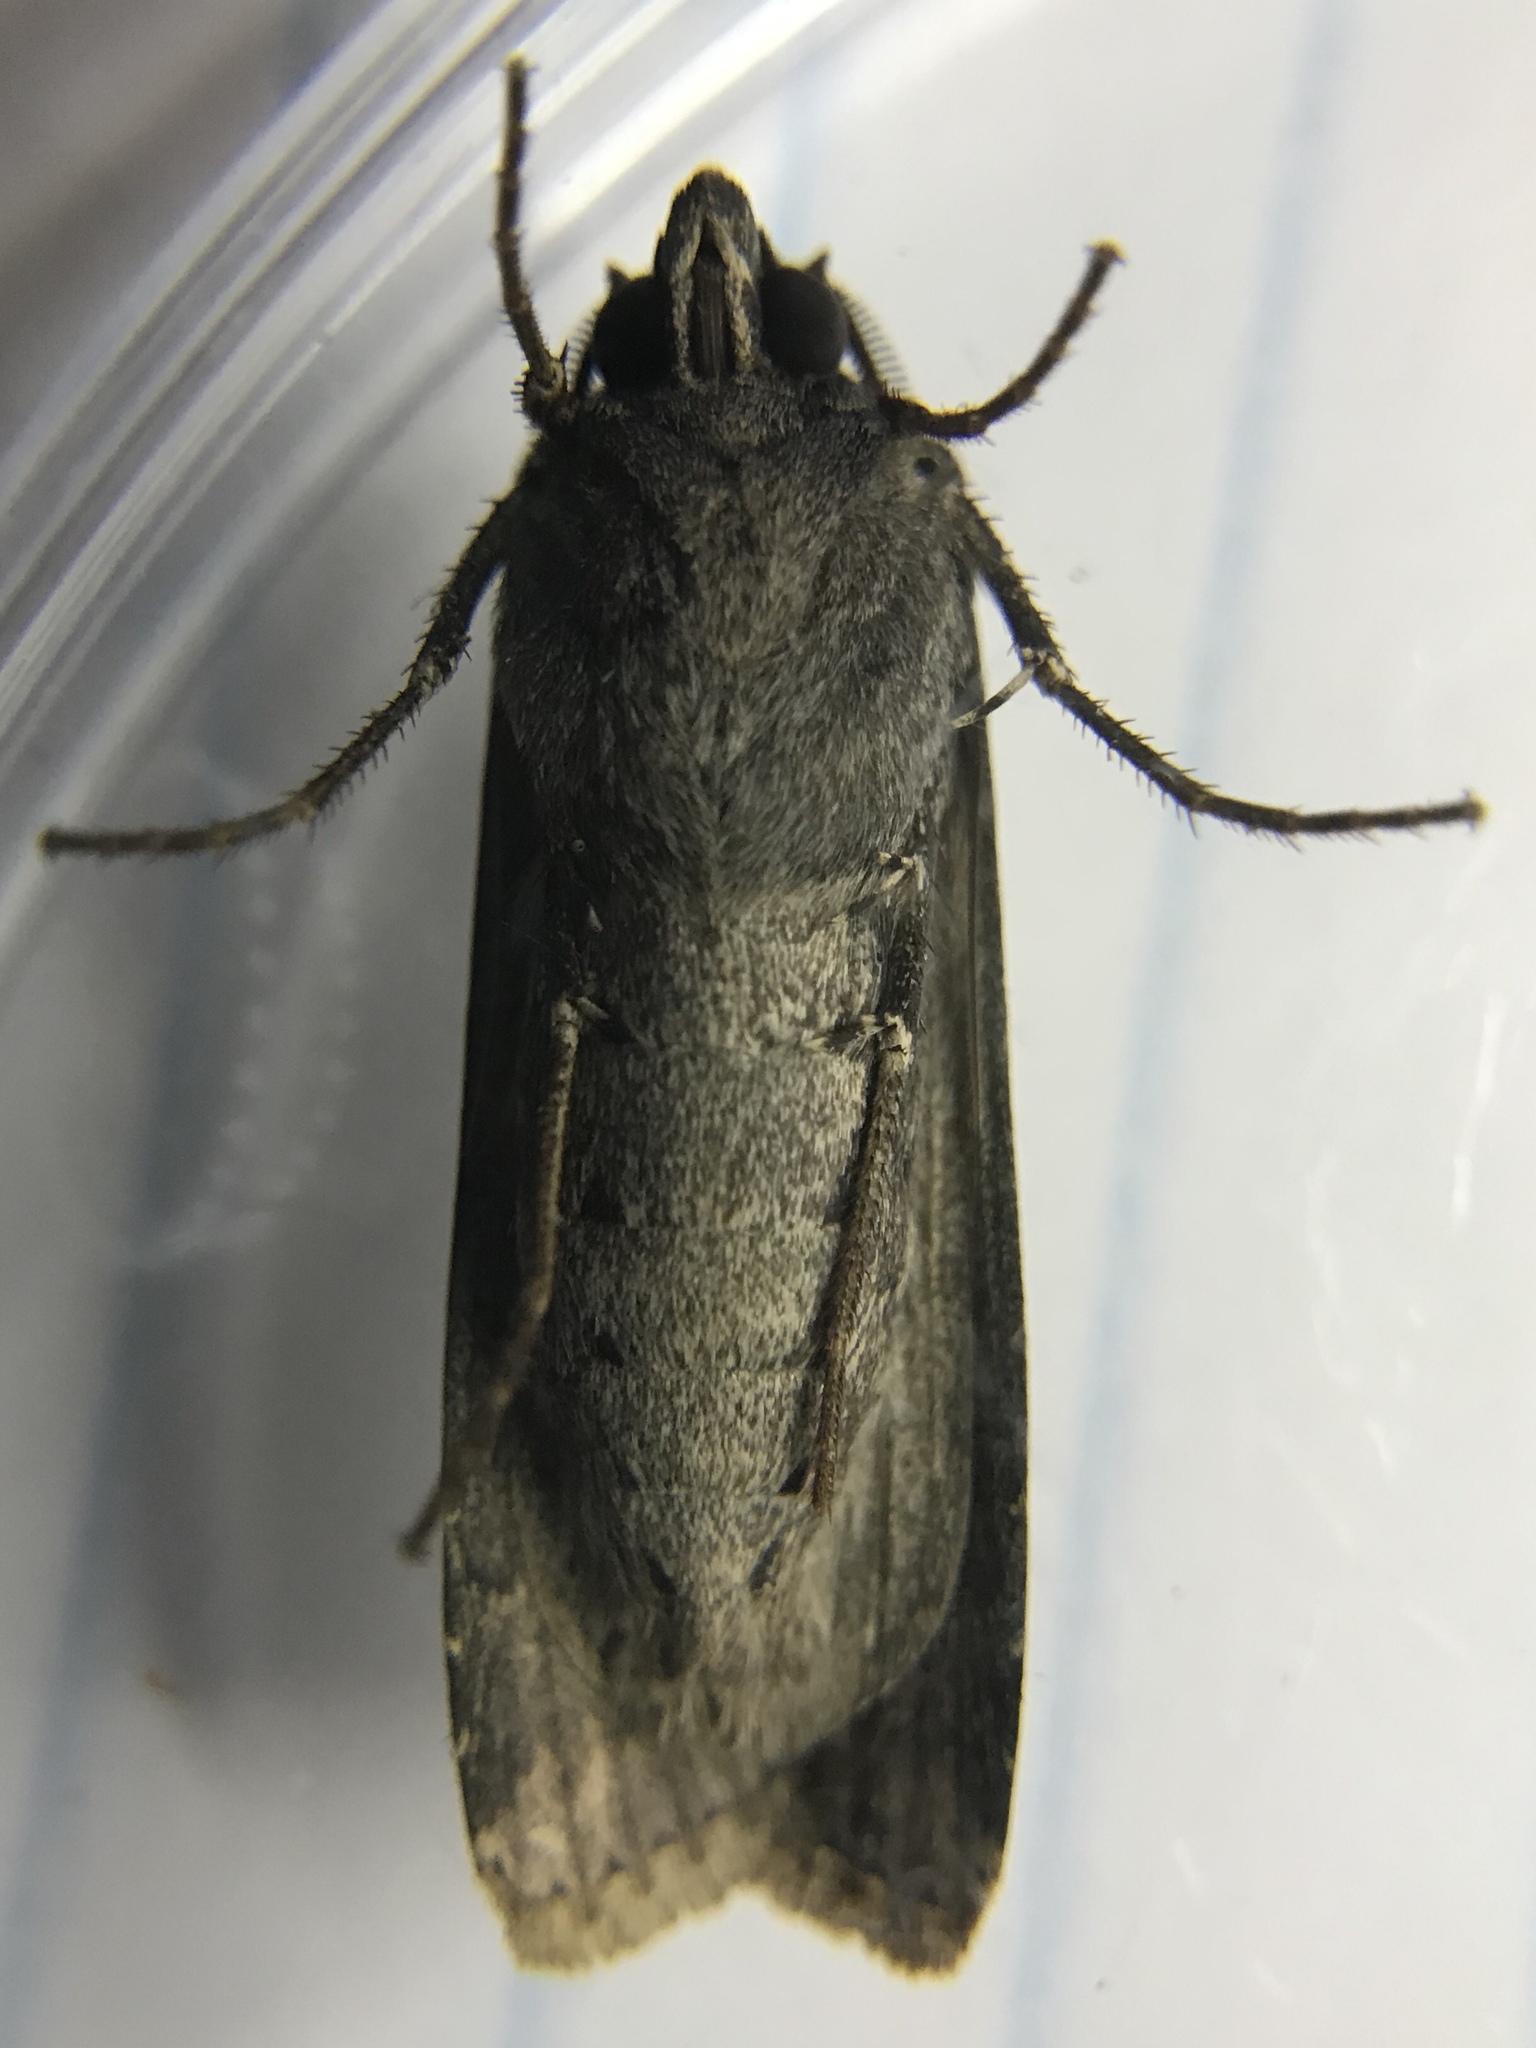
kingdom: Animalia
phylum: Arthropoda
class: Insecta
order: Lepidoptera
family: Noctuidae
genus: Agrotis
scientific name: Agrotis ipsilon
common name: Dark sword-grass
